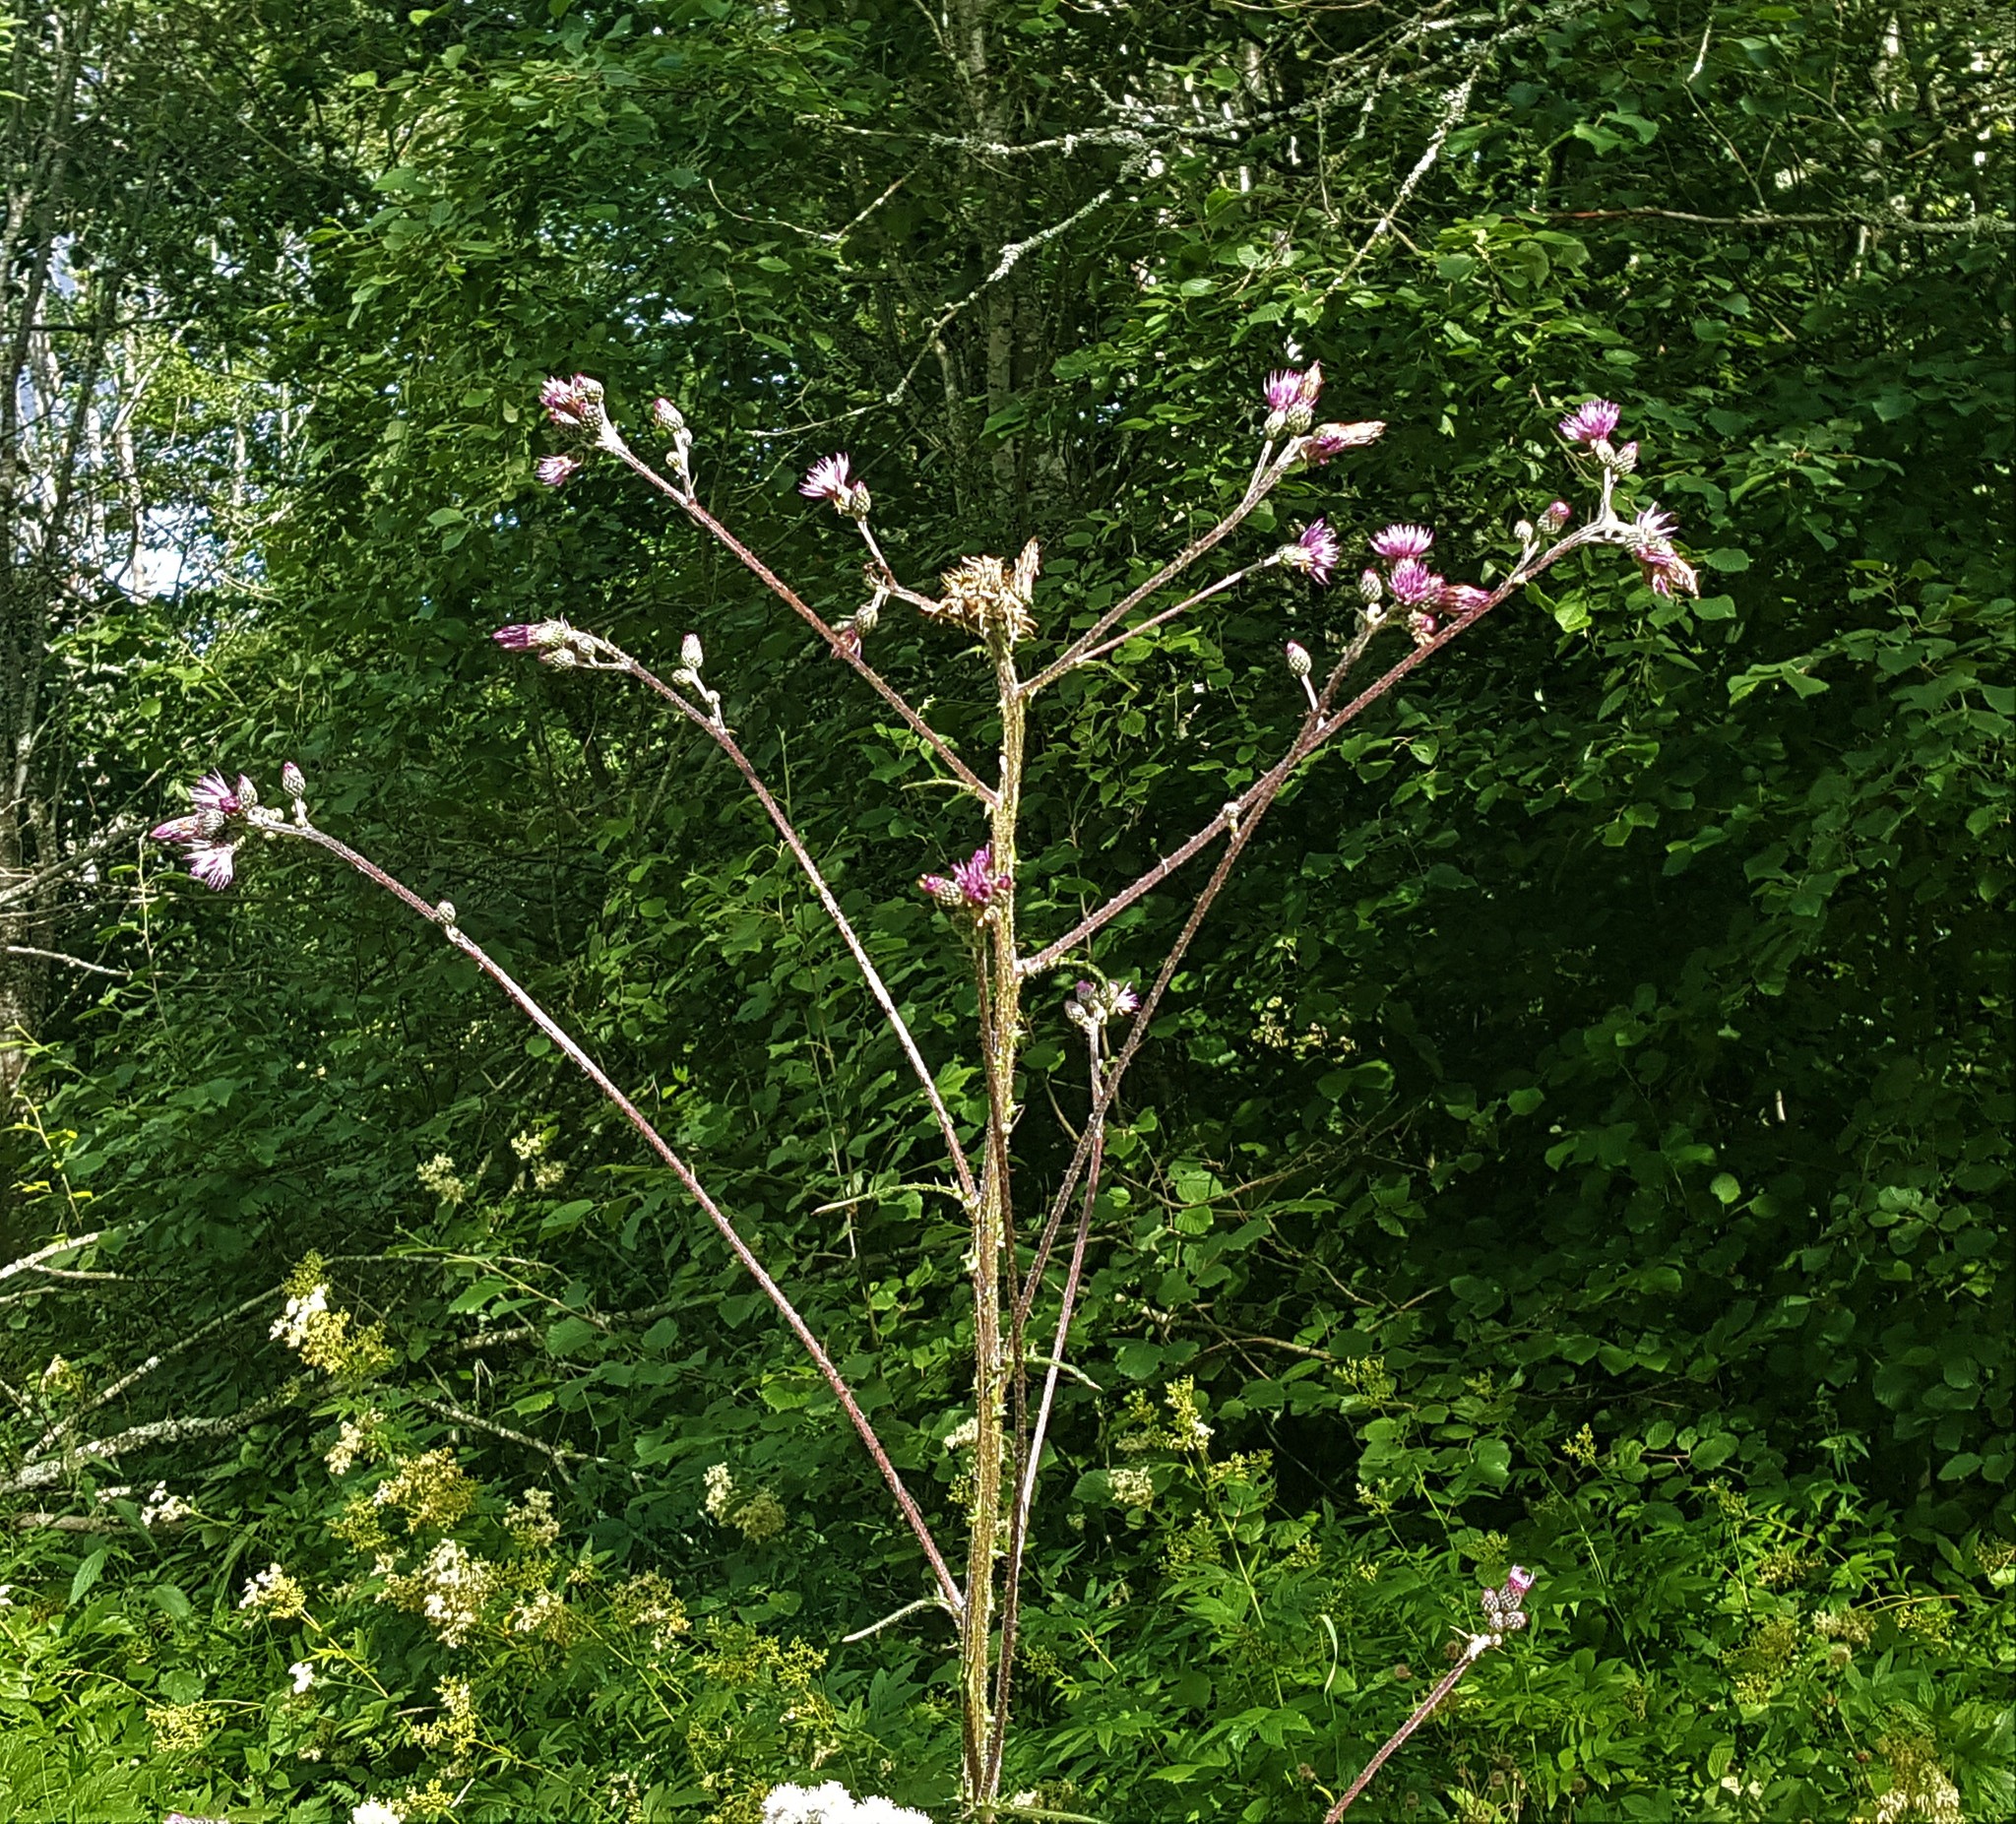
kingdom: Plantae
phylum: Tracheophyta
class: Magnoliopsida
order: Asterales
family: Asteraceae
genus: Cirsium
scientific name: Cirsium palustre
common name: Marsh thistle
